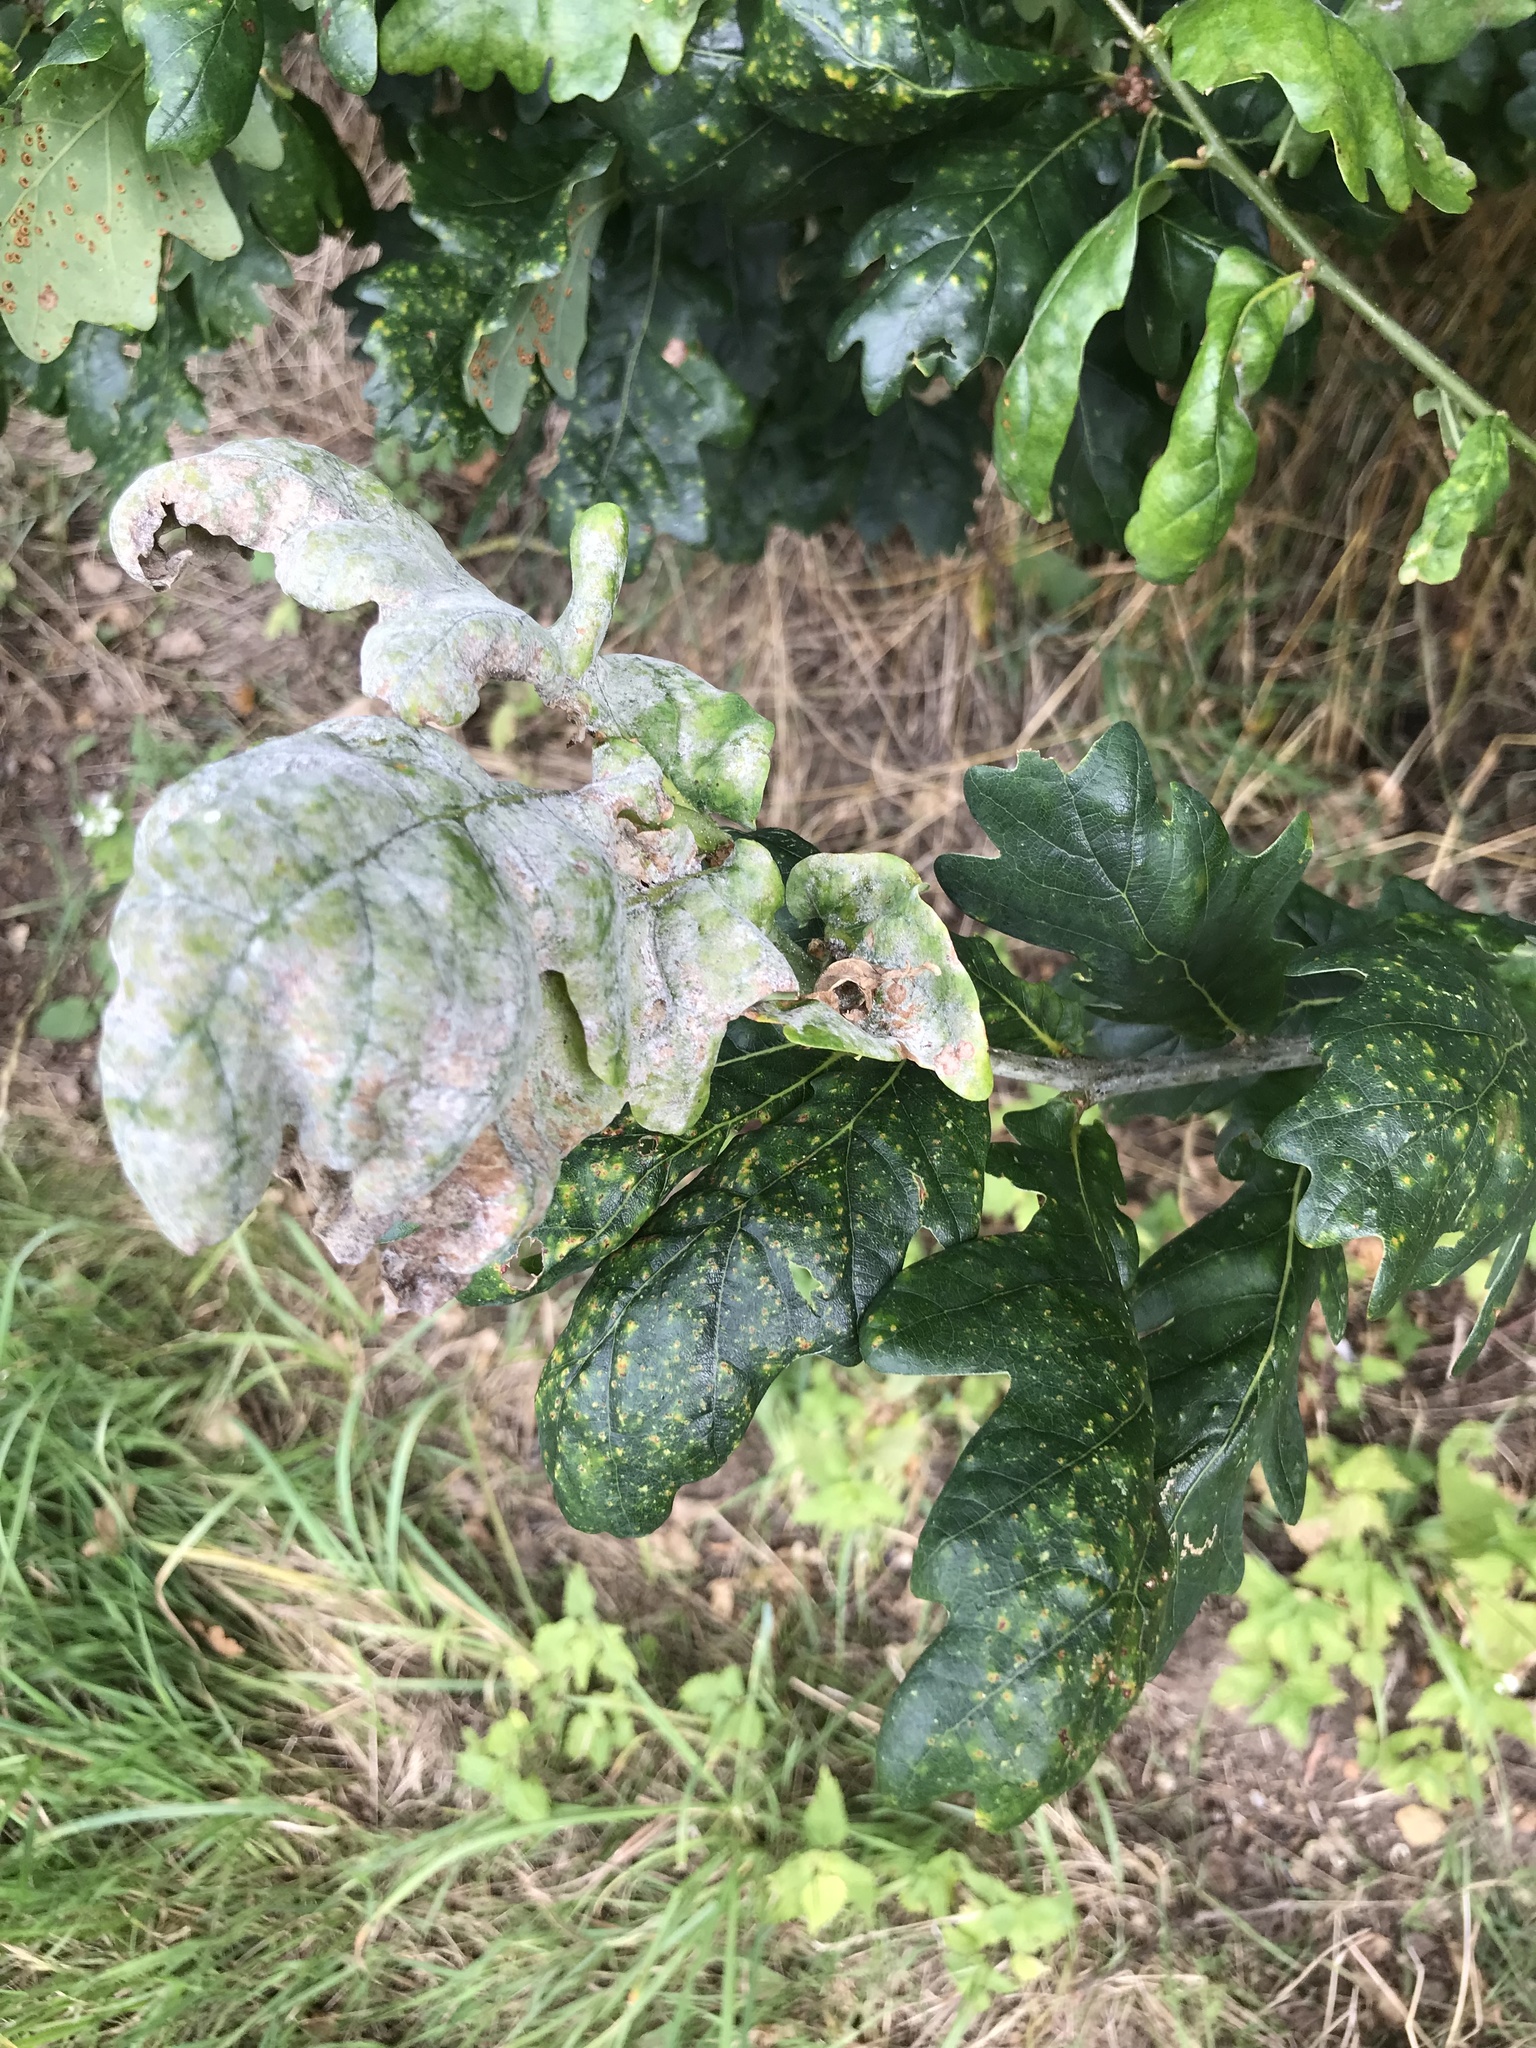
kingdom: Fungi
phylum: Ascomycota
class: Leotiomycetes
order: Helotiales
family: Erysiphaceae
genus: Erysiphe
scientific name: Erysiphe alphitoides
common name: Oak mildew
